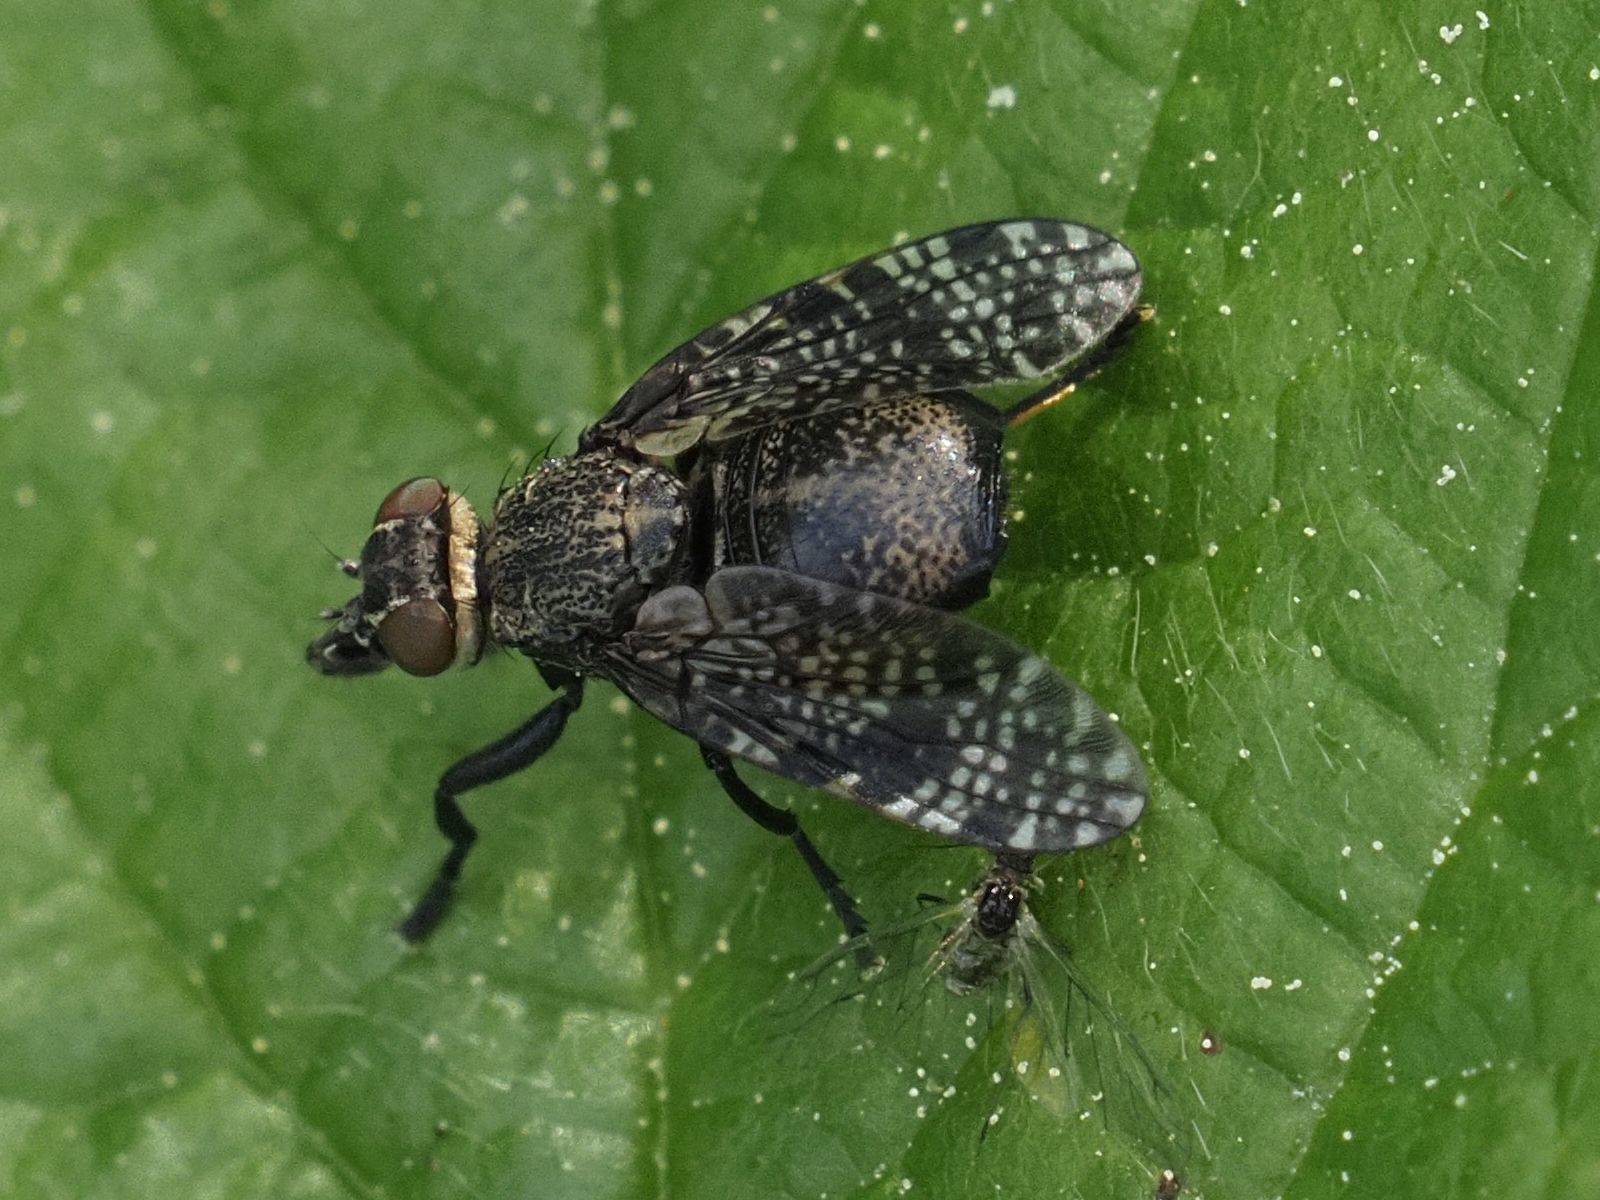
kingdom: Animalia
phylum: Arthropoda
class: Insecta
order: Diptera
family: Platystomatidae
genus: Platystoma
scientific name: Platystoma seminationis
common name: Fly
